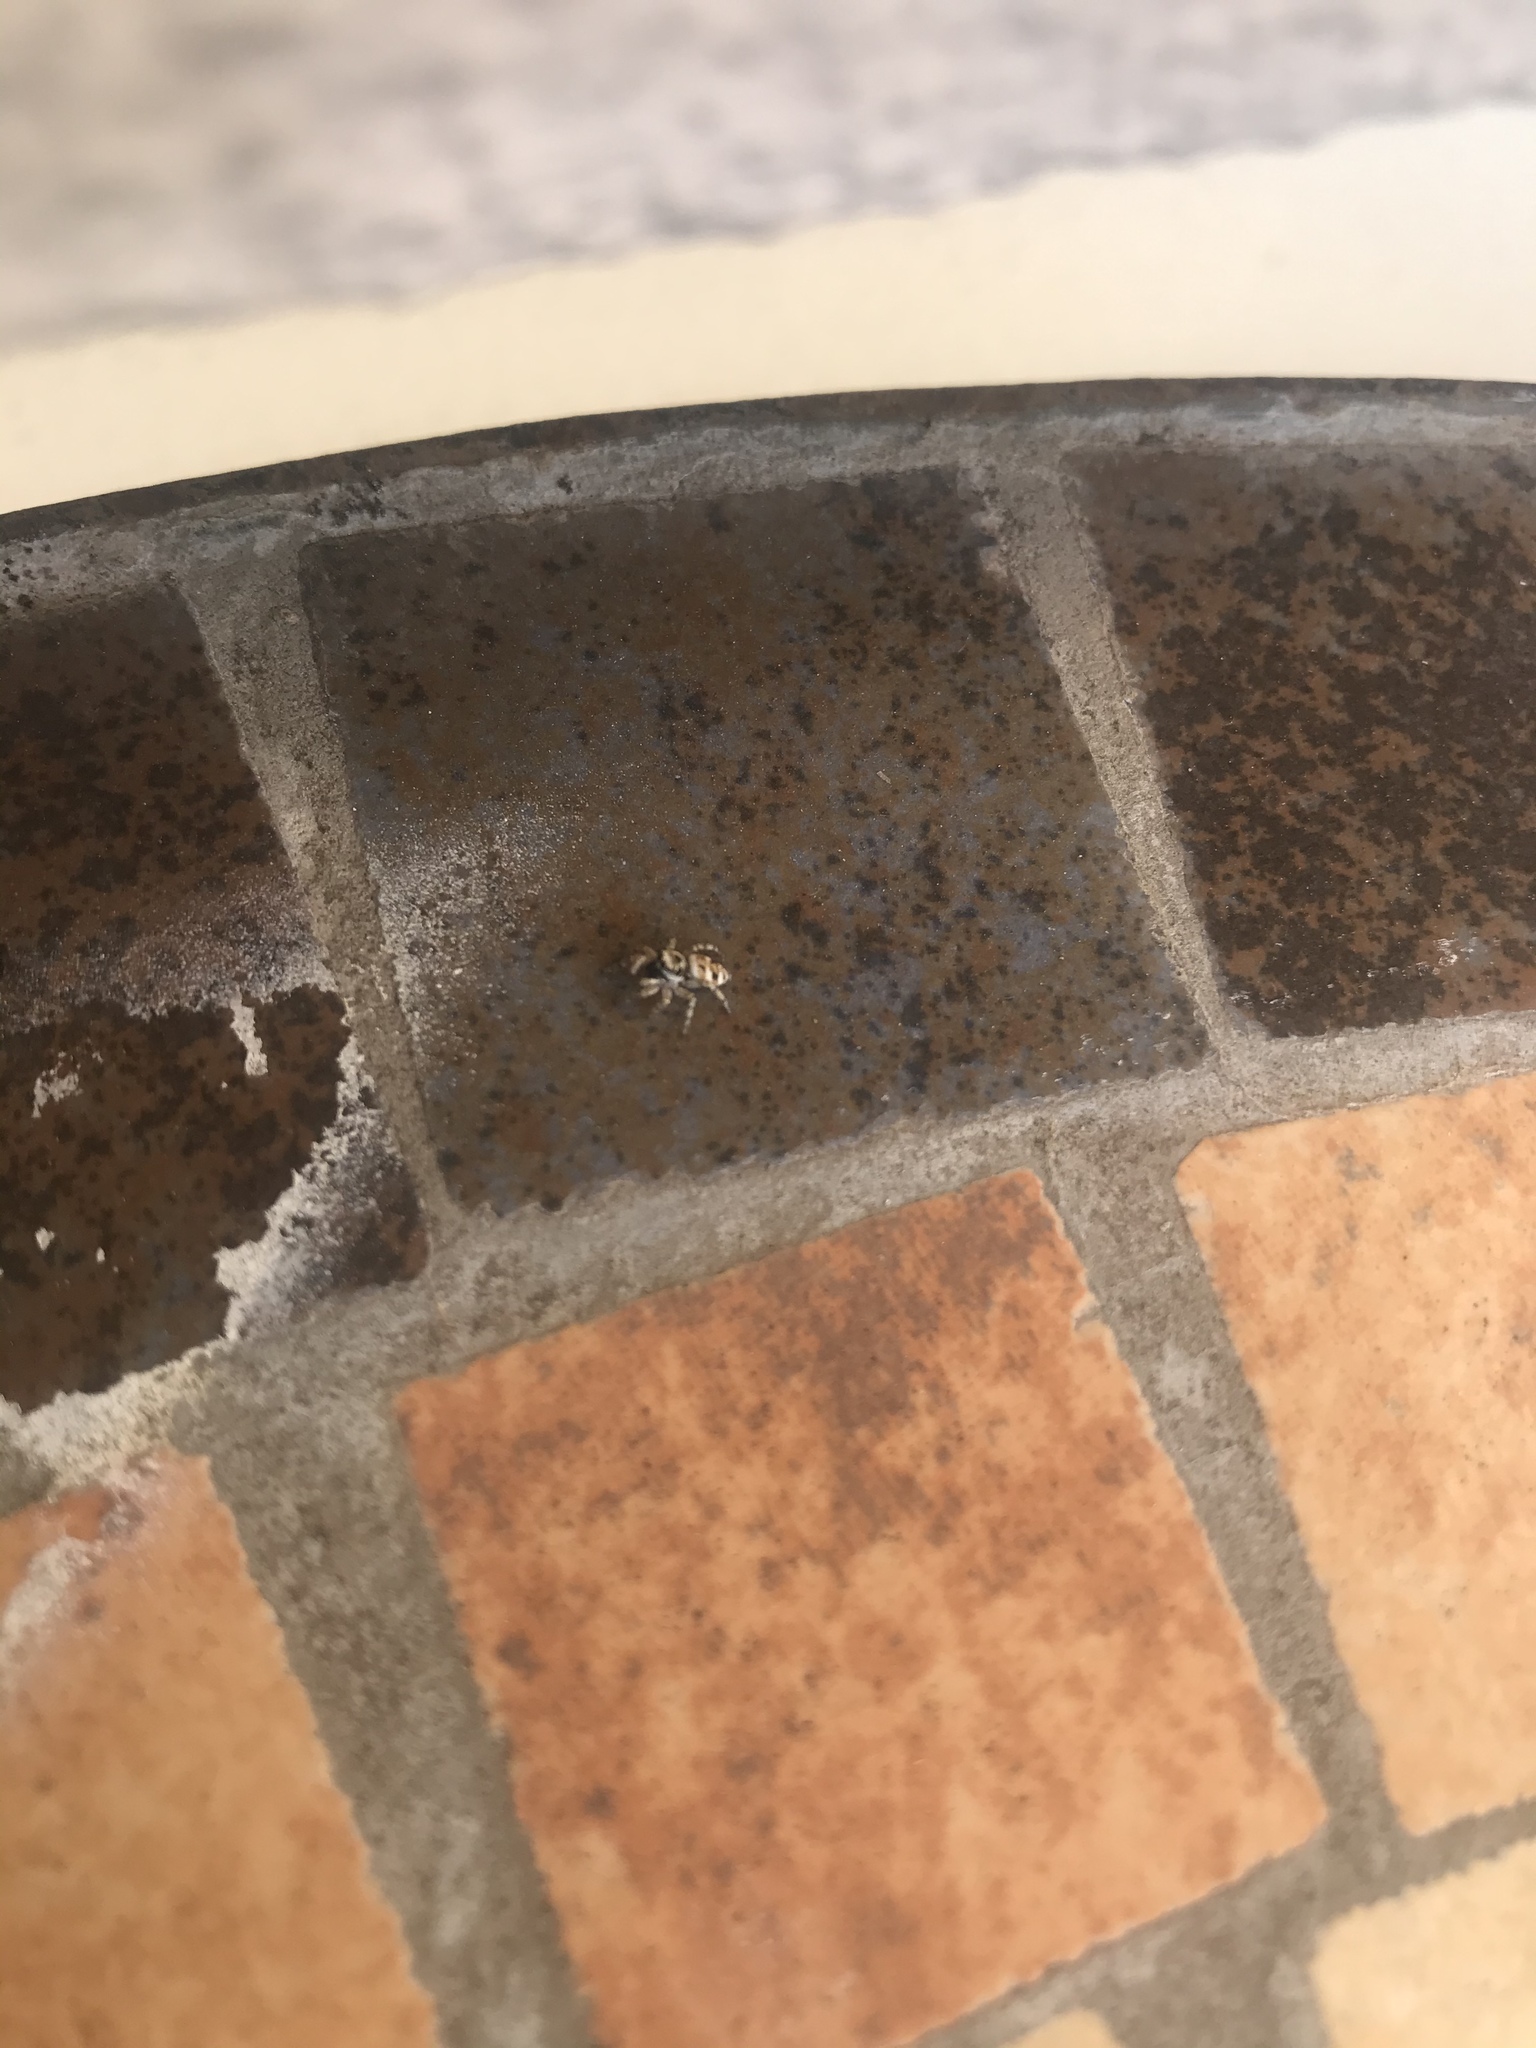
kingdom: Animalia
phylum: Arthropoda
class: Arachnida
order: Araneae
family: Salticidae
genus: Salticus
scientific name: Salticus scenicus
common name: Zebra jumper
